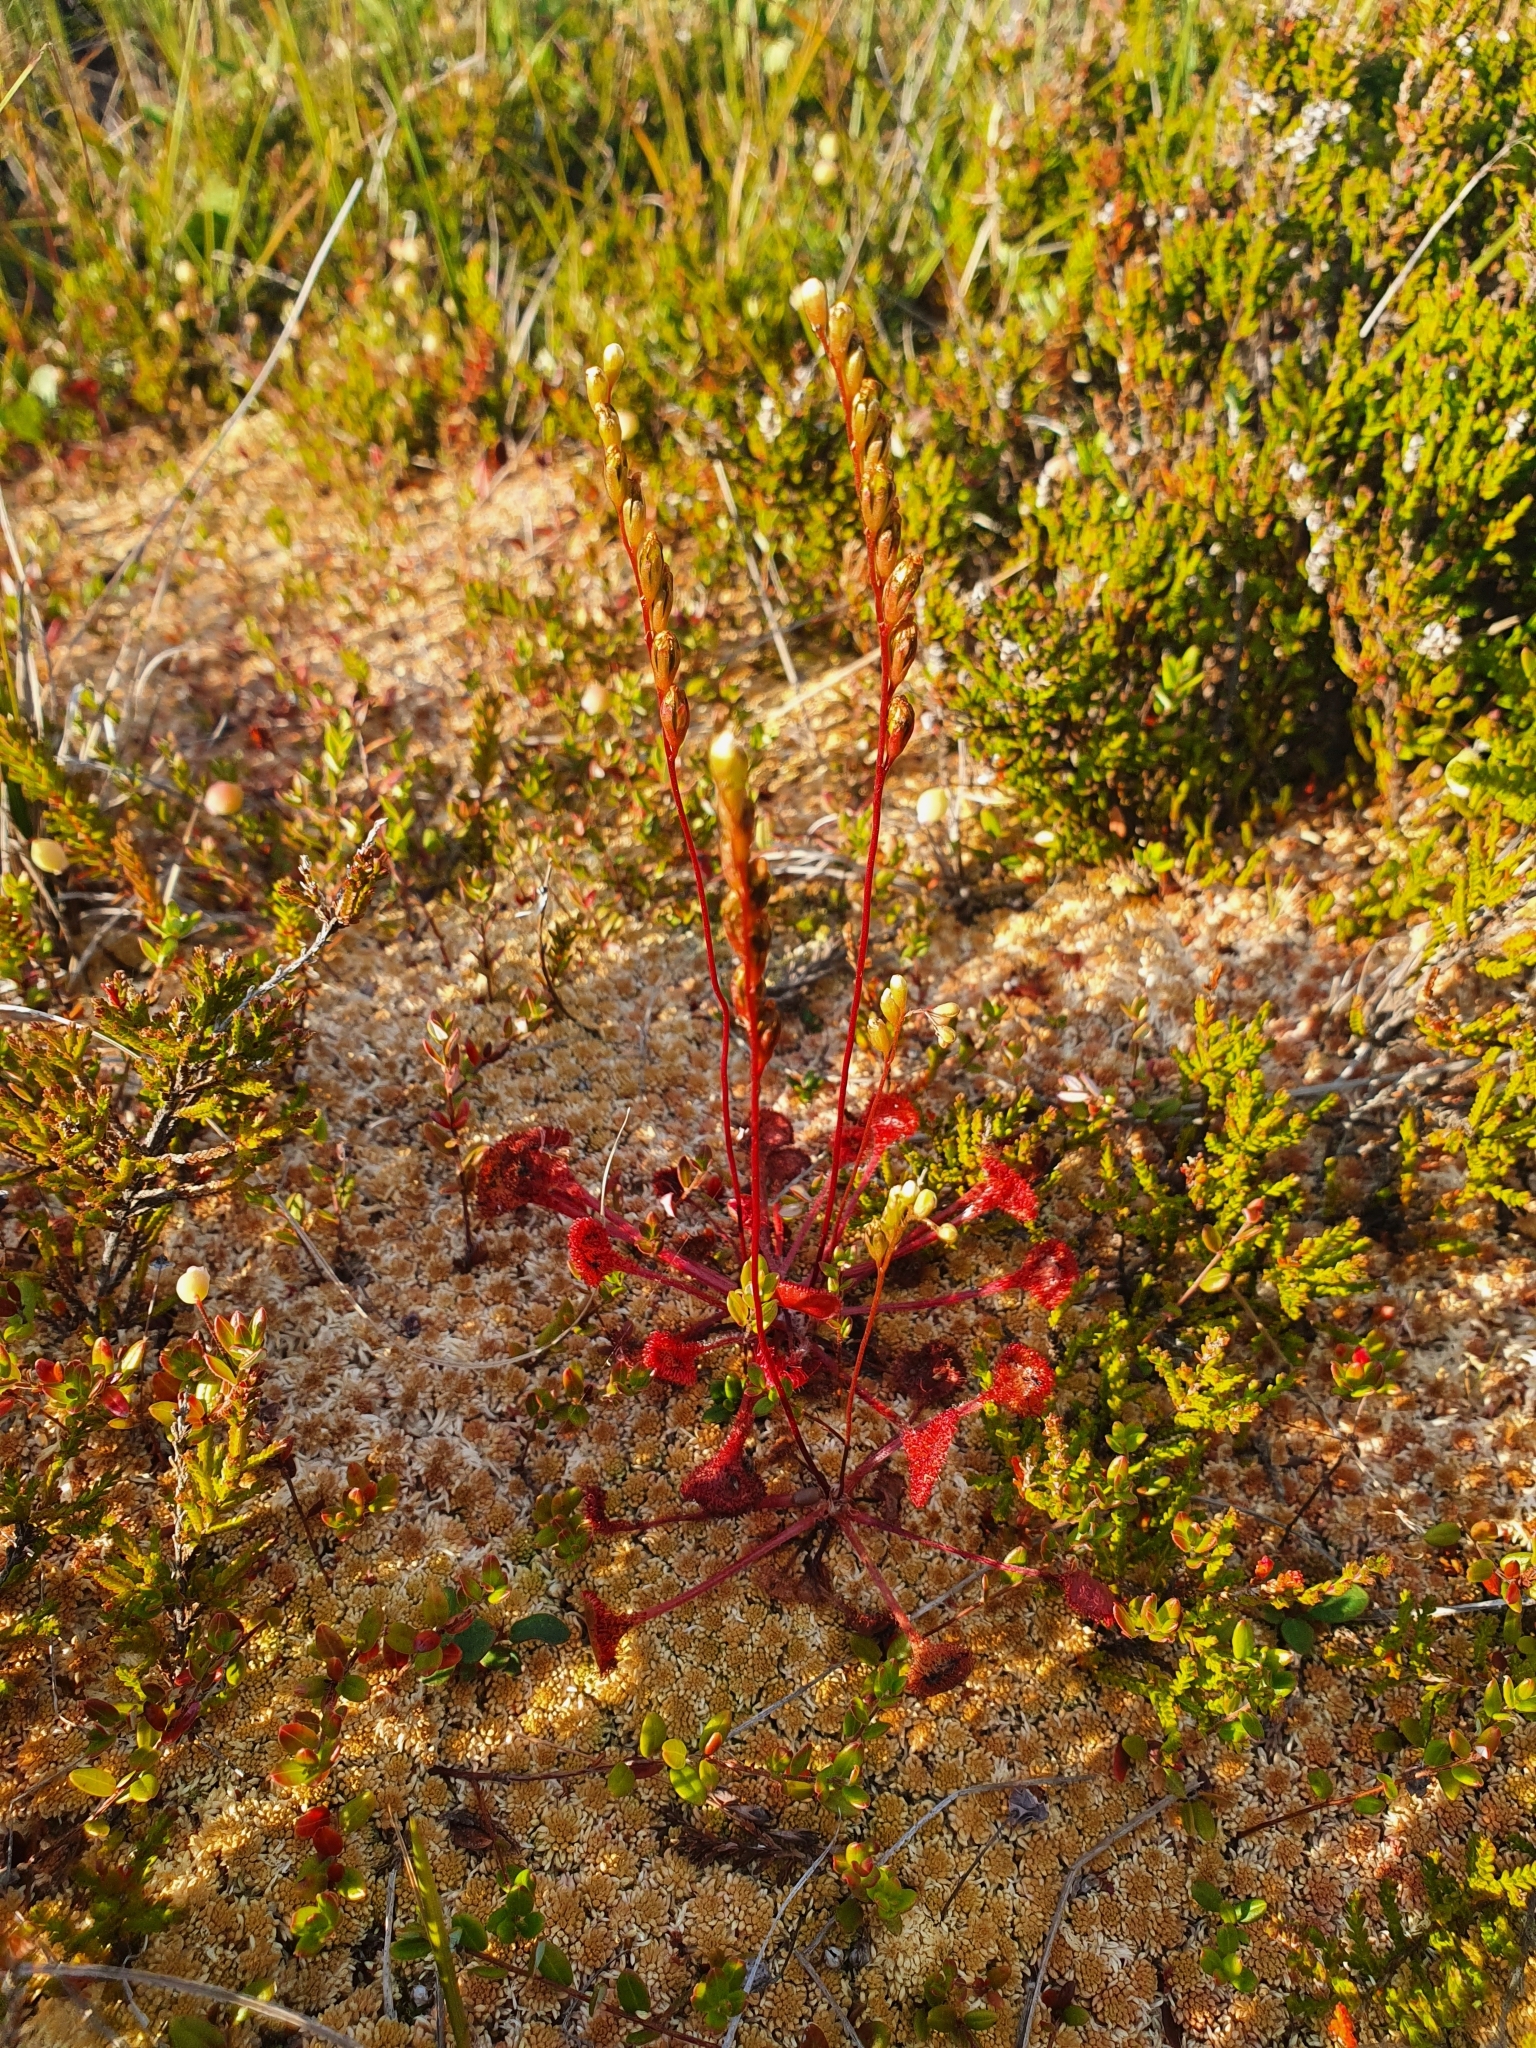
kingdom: Plantae
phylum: Tracheophyta
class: Magnoliopsida
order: Caryophyllales
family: Droseraceae
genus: Drosera
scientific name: Drosera rotundifolia
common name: Round-leaved sundew
